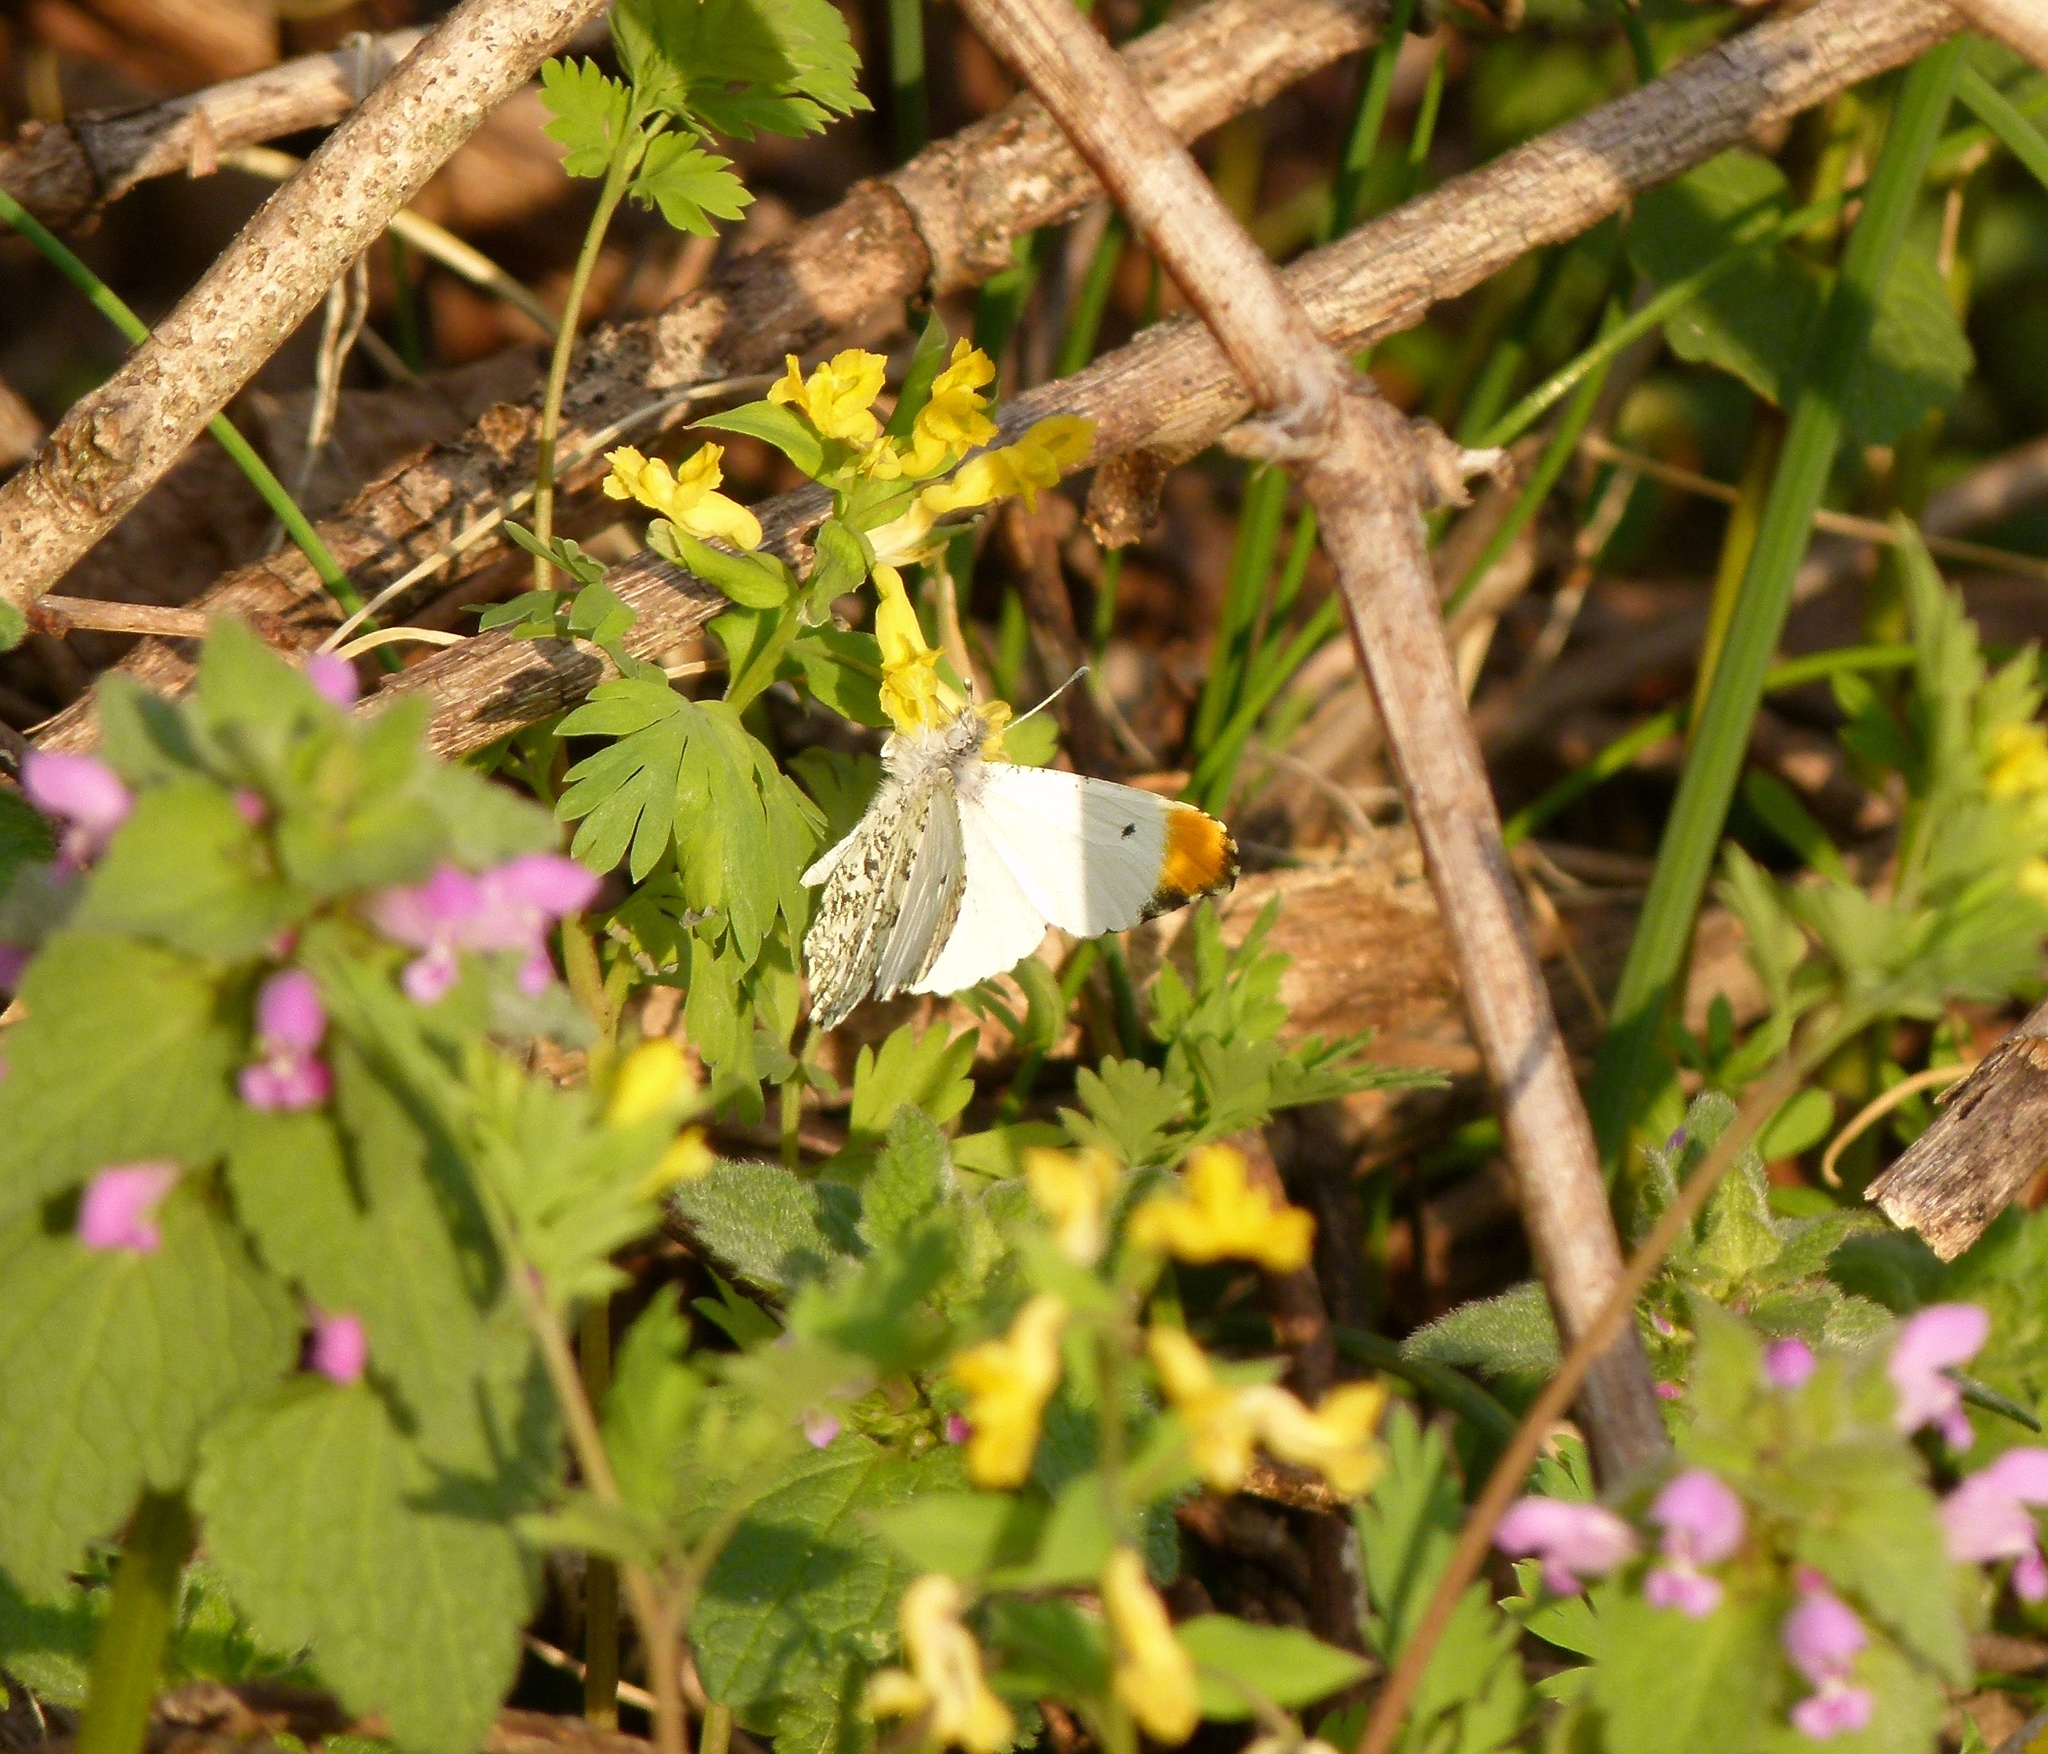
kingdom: Animalia
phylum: Arthropoda
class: Insecta
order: Lepidoptera
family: Pieridae
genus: Anthocharis
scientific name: Anthocharis midea
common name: Falcate orangetip
